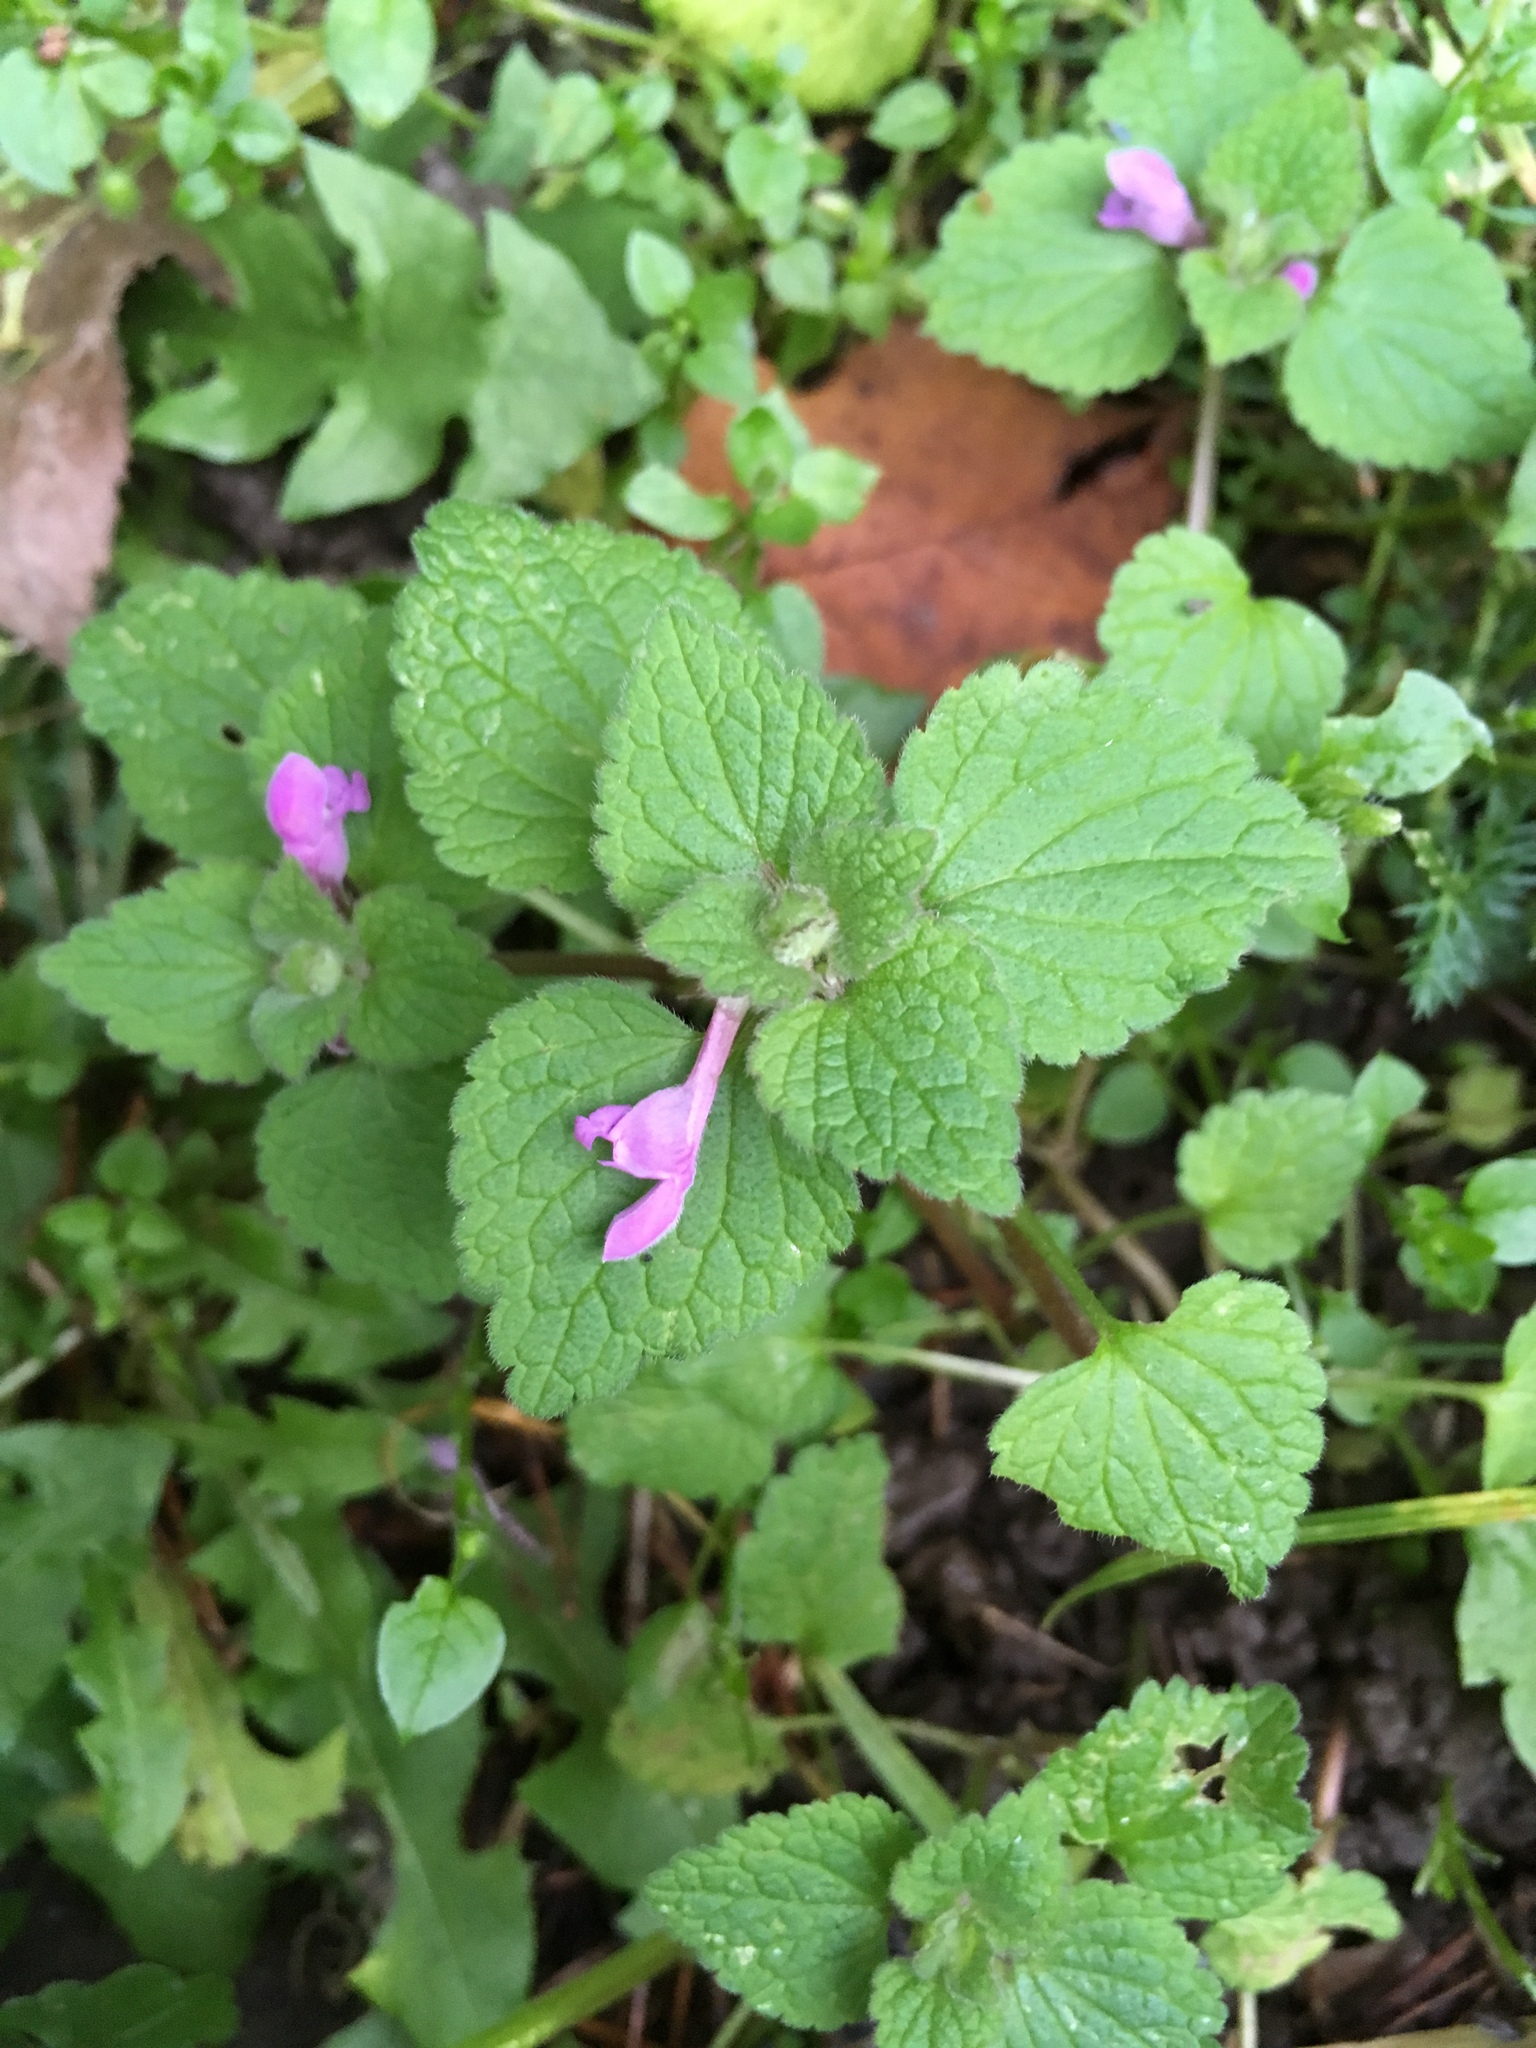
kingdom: Plantae
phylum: Tracheophyta
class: Magnoliopsida
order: Lamiales
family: Lamiaceae
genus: Lamium
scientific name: Lamium purpureum
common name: Red dead-nettle
